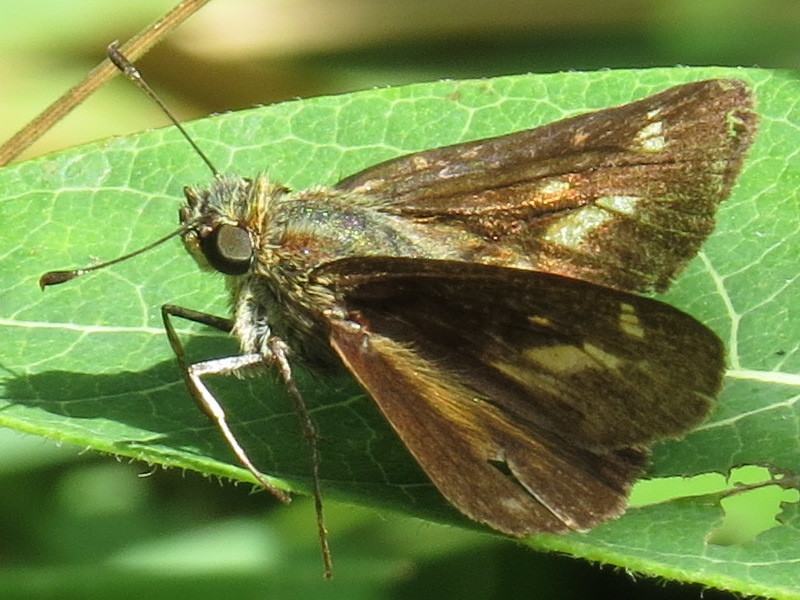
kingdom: Animalia
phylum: Arthropoda
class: Insecta
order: Lepidoptera
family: Hesperiidae
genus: Vernia
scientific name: Vernia verna
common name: Little glassywing
